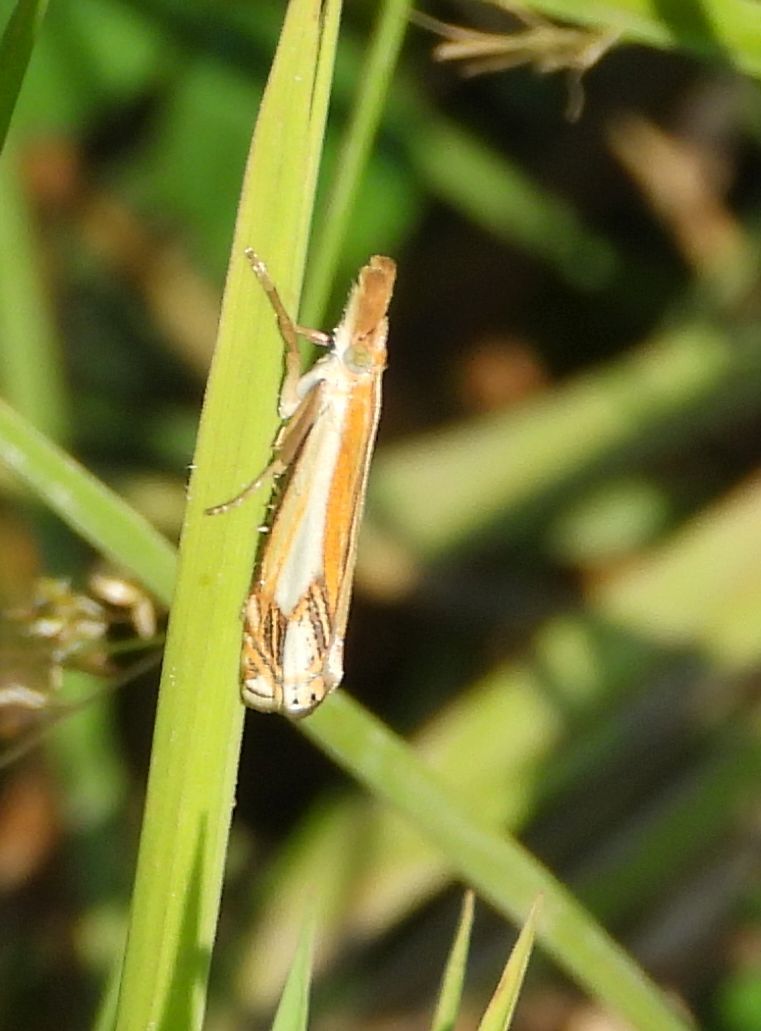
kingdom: Animalia
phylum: Arthropoda
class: Insecta
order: Lepidoptera
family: Crambidae
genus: Crambus
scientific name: Crambus agitatellus
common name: Double-banded grass-veneer
